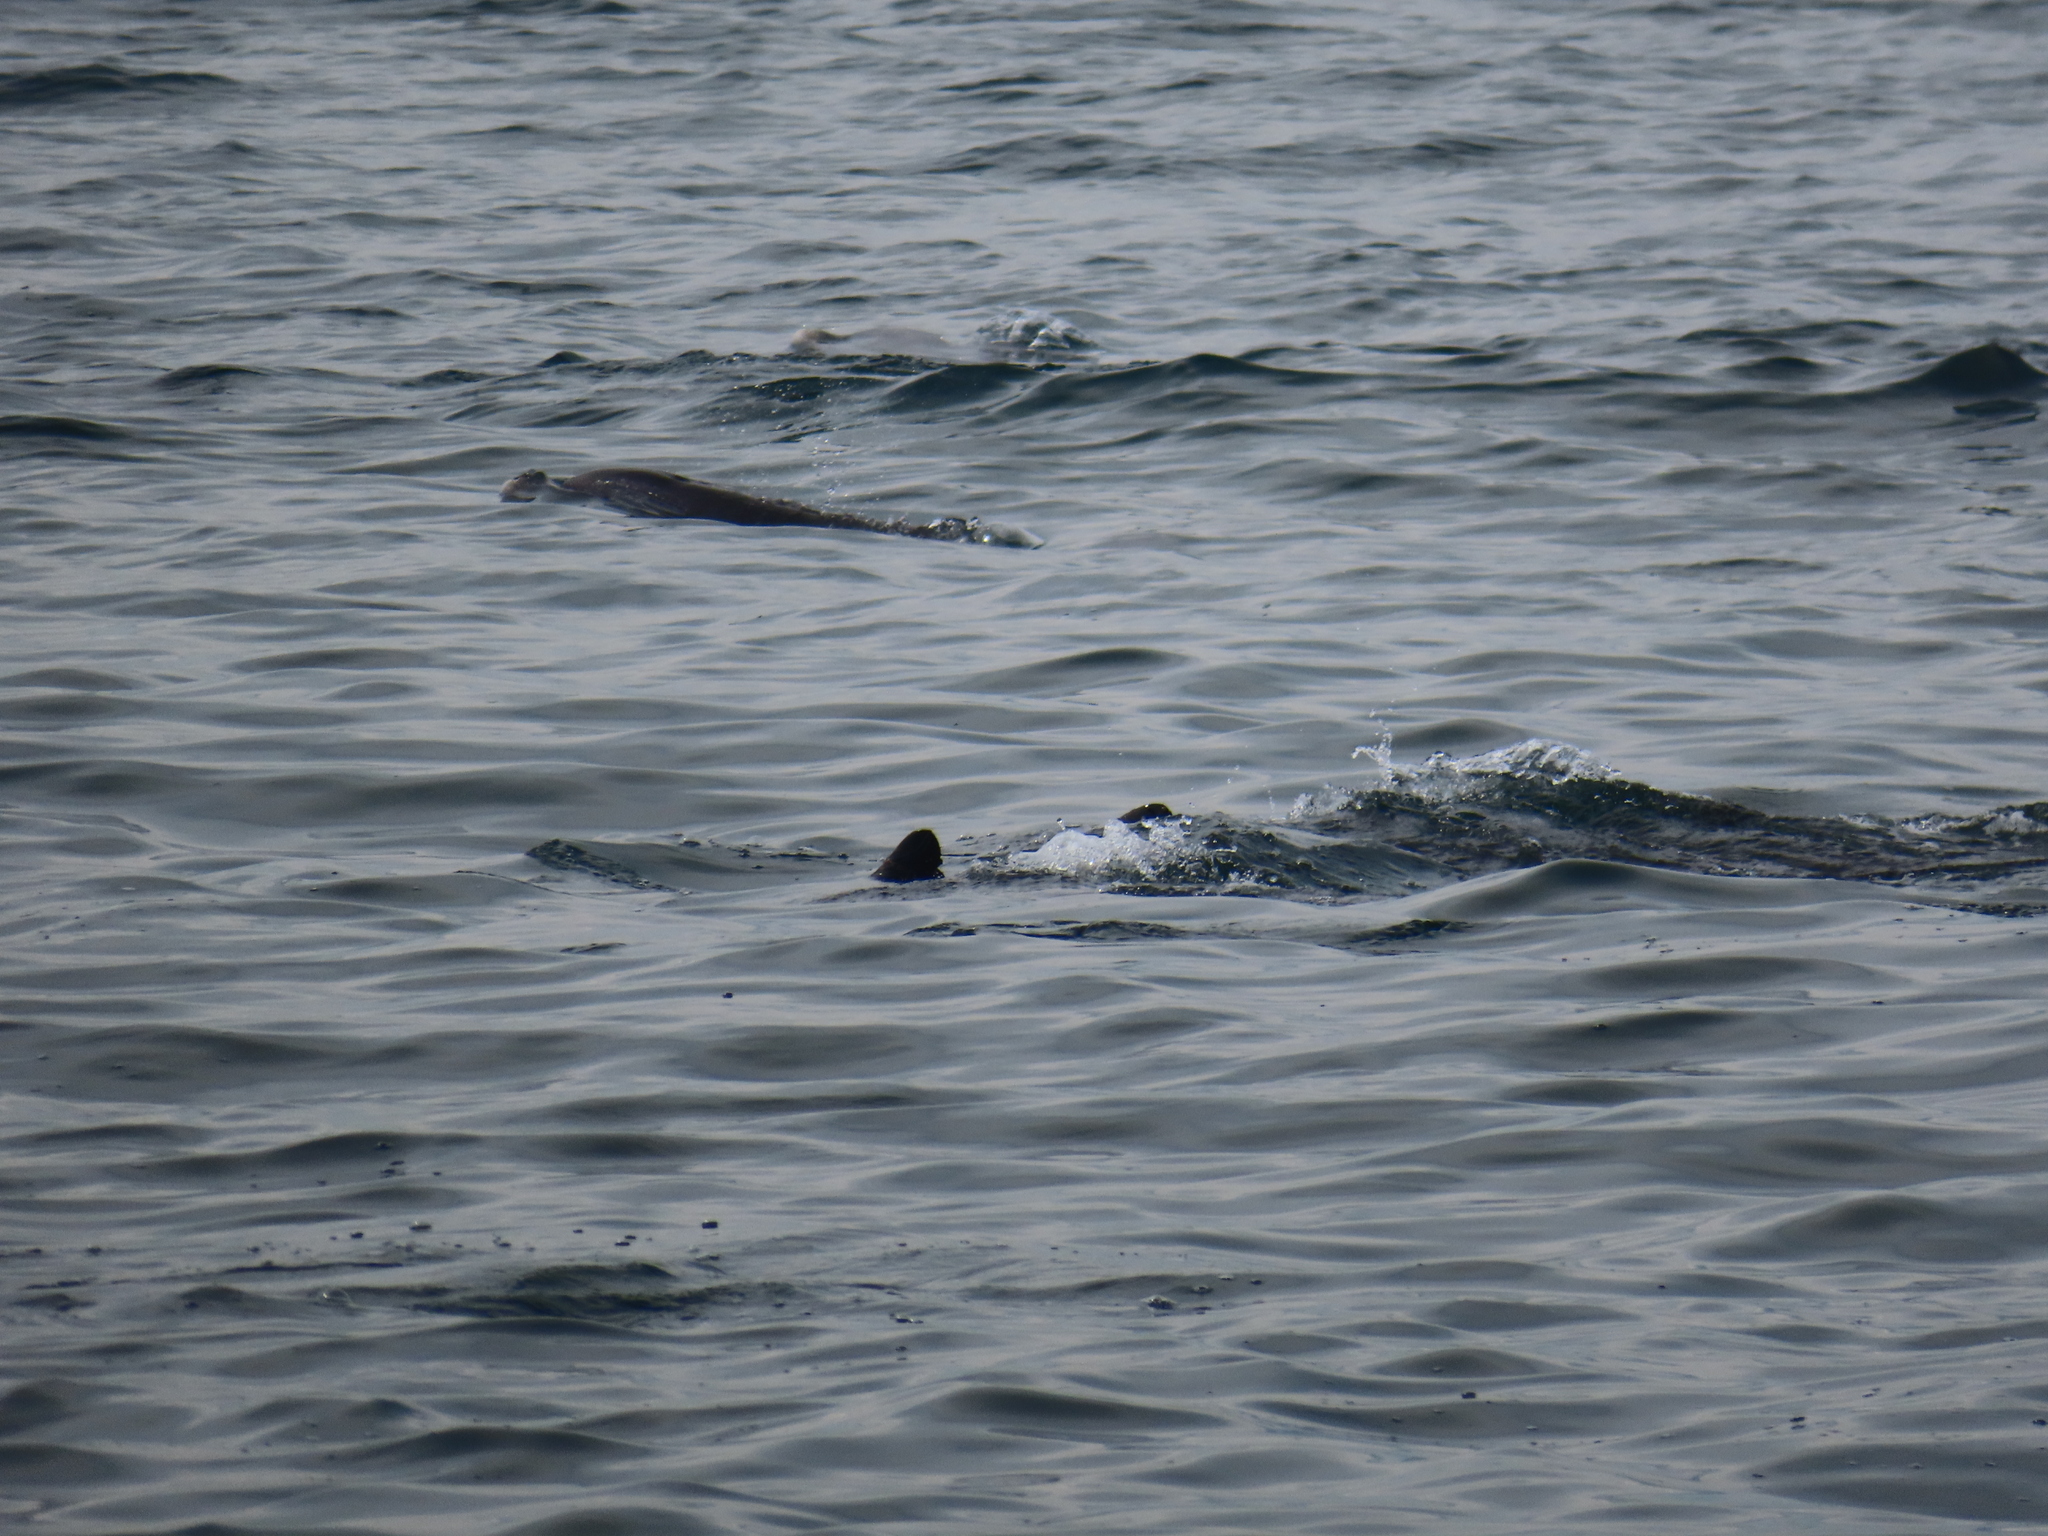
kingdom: Animalia
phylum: Chordata
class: Mammalia
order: Cetacea
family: Delphinidae
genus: Tursiops
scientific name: Tursiops truncatus
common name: Bottlenose dolphin
